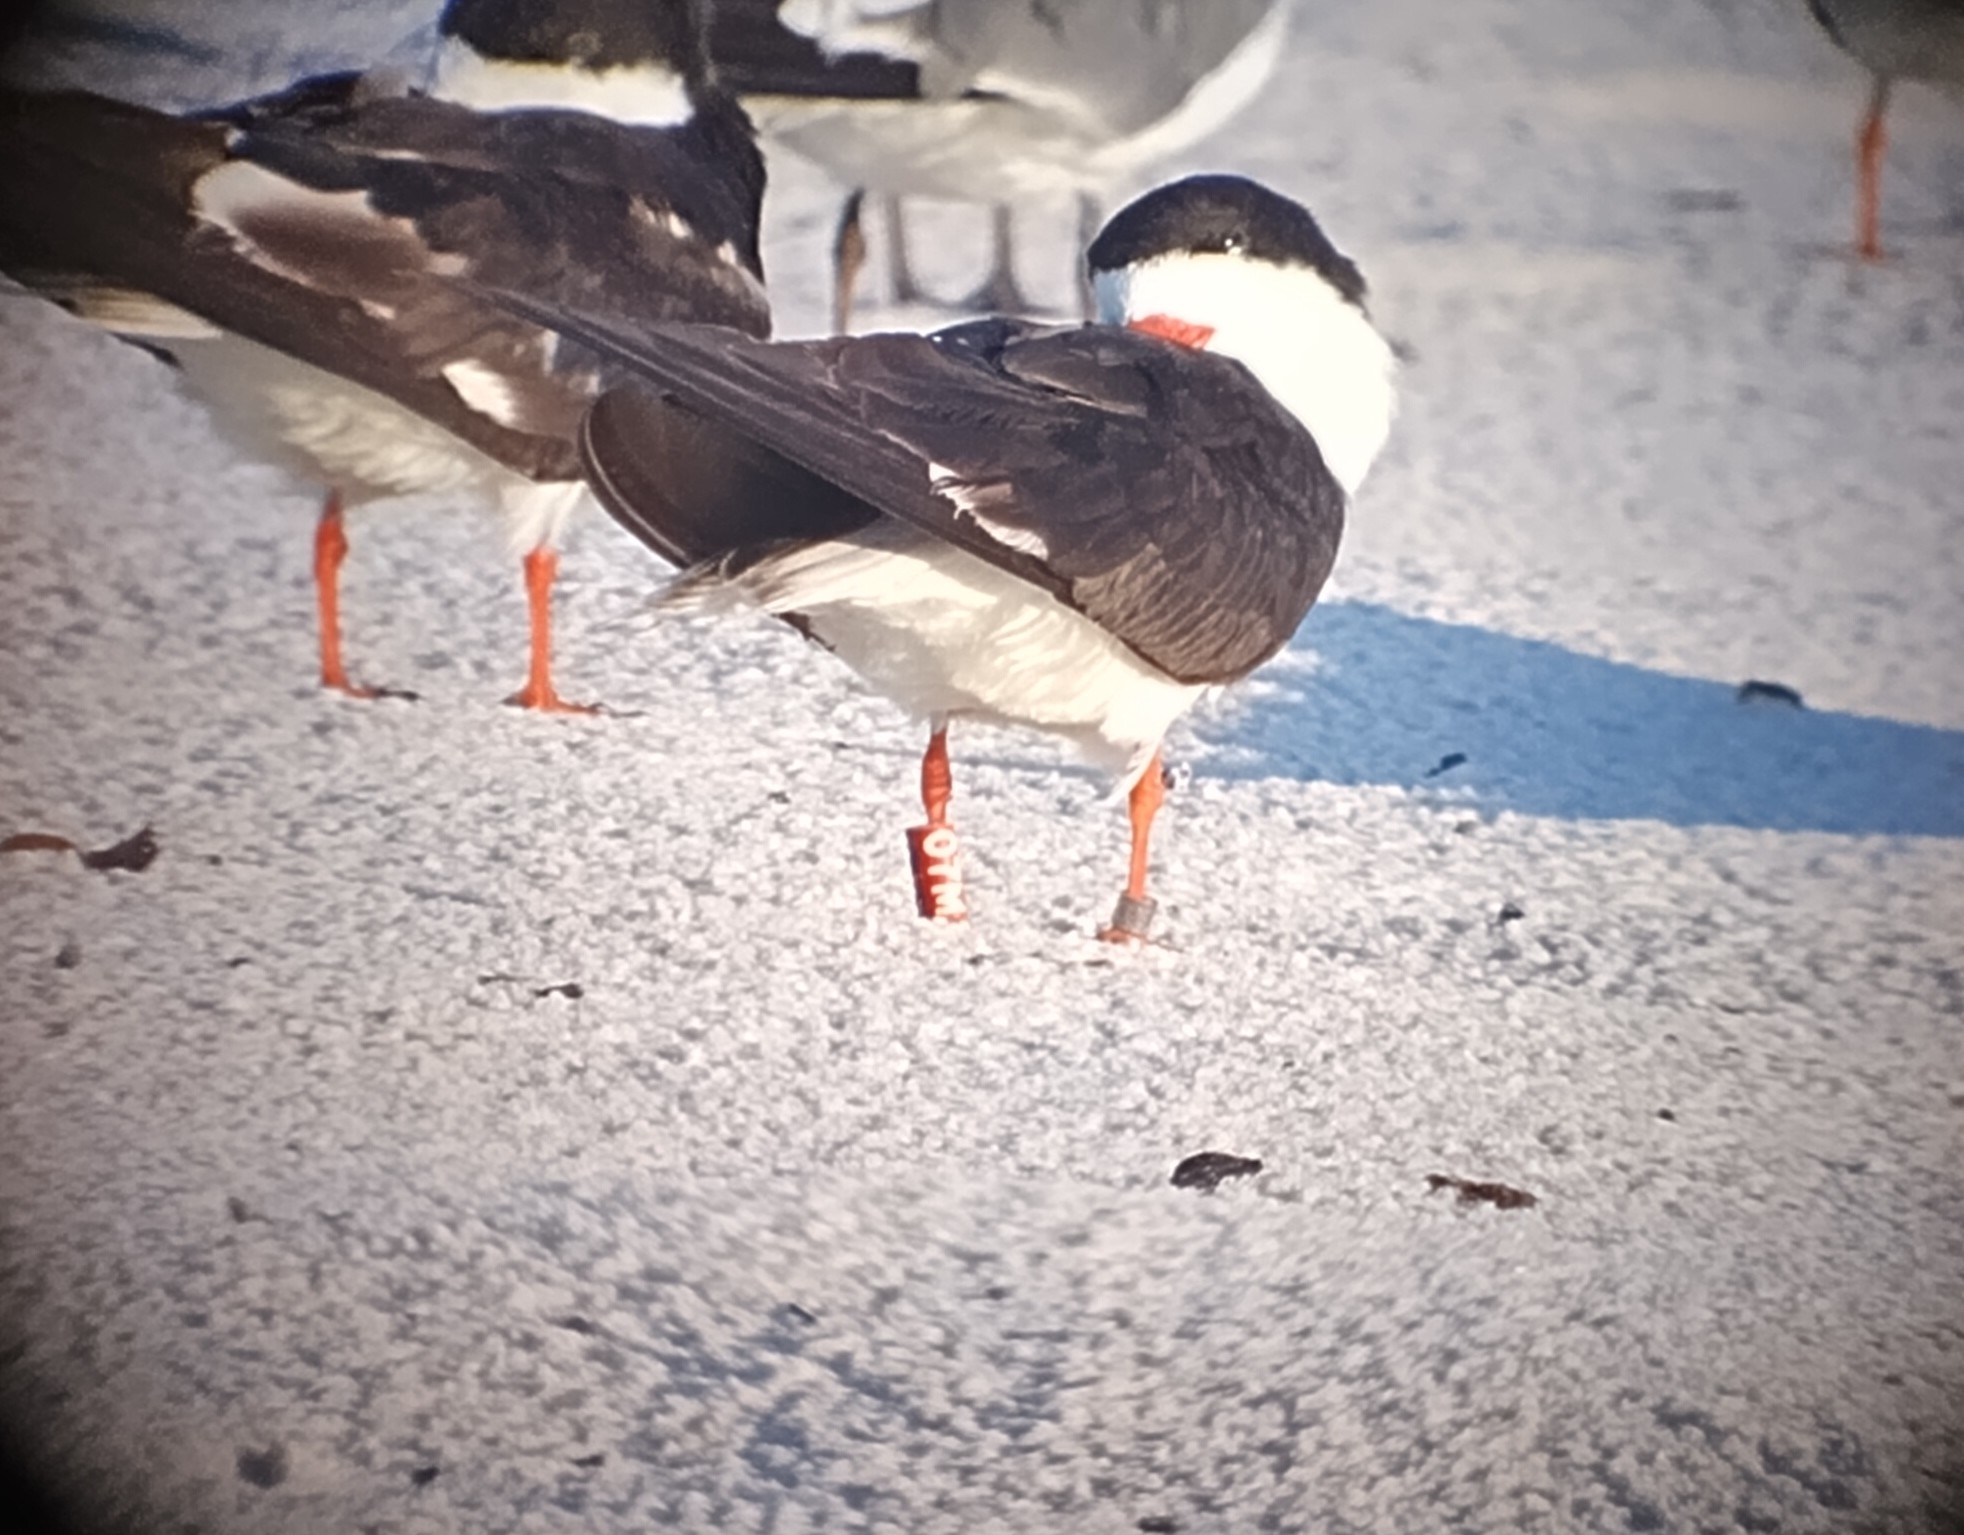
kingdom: Animalia
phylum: Chordata
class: Aves
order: Charadriiformes
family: Laridae
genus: Rynchops
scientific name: Rynchops niger
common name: Black skimmer
